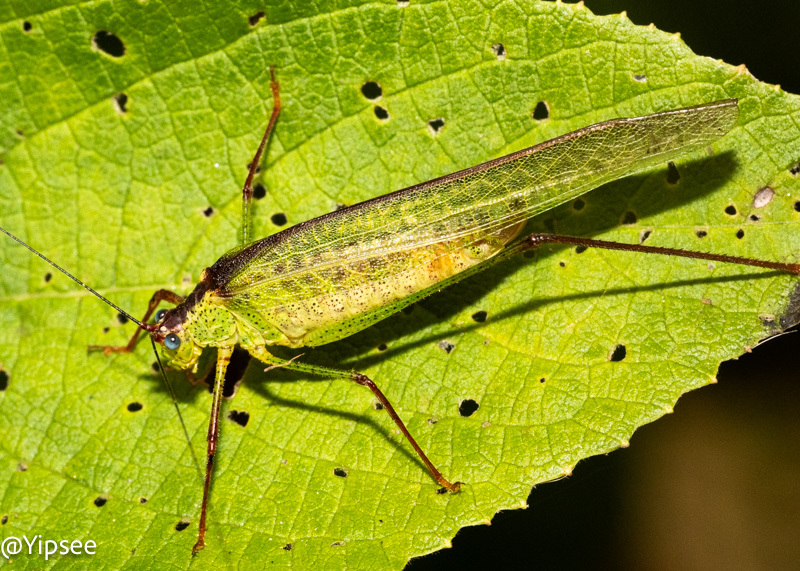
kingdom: Animalia
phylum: Arthropoda
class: Insecta
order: Orthoptera
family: Tettigoniidae
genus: Letana
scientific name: Letana rubescens
